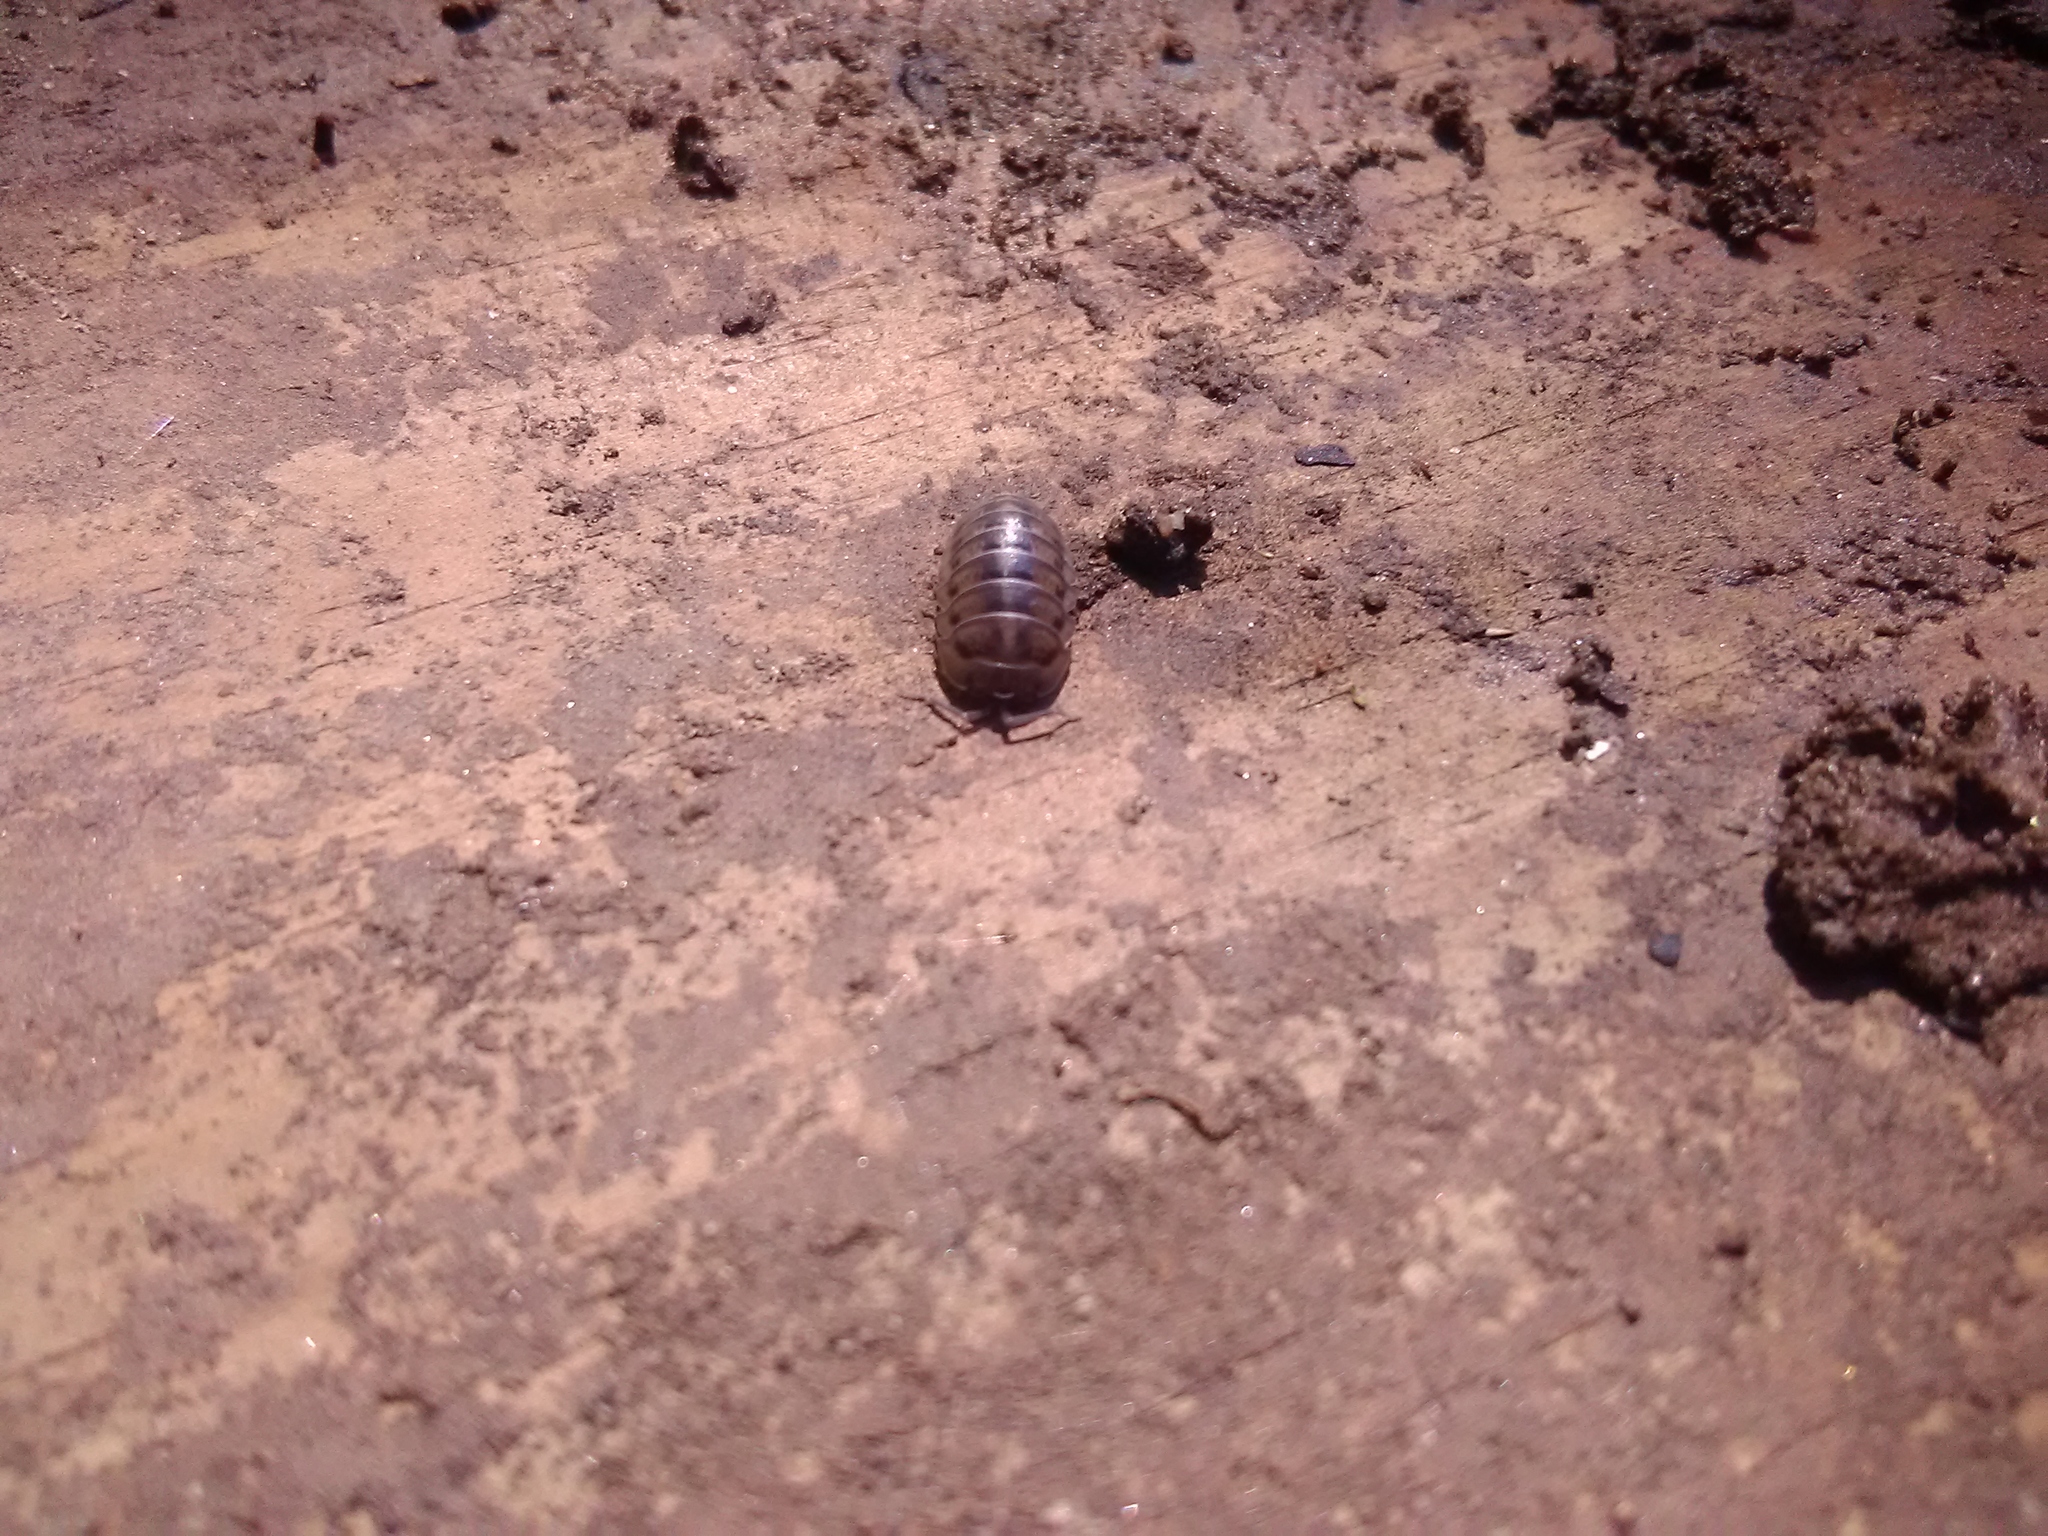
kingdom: Animalia
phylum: Arthropoda
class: Malacostraca
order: Isopoda
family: Armadillidiidae
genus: Armadillidium
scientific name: Armadillidium nasatum
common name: Isopod
